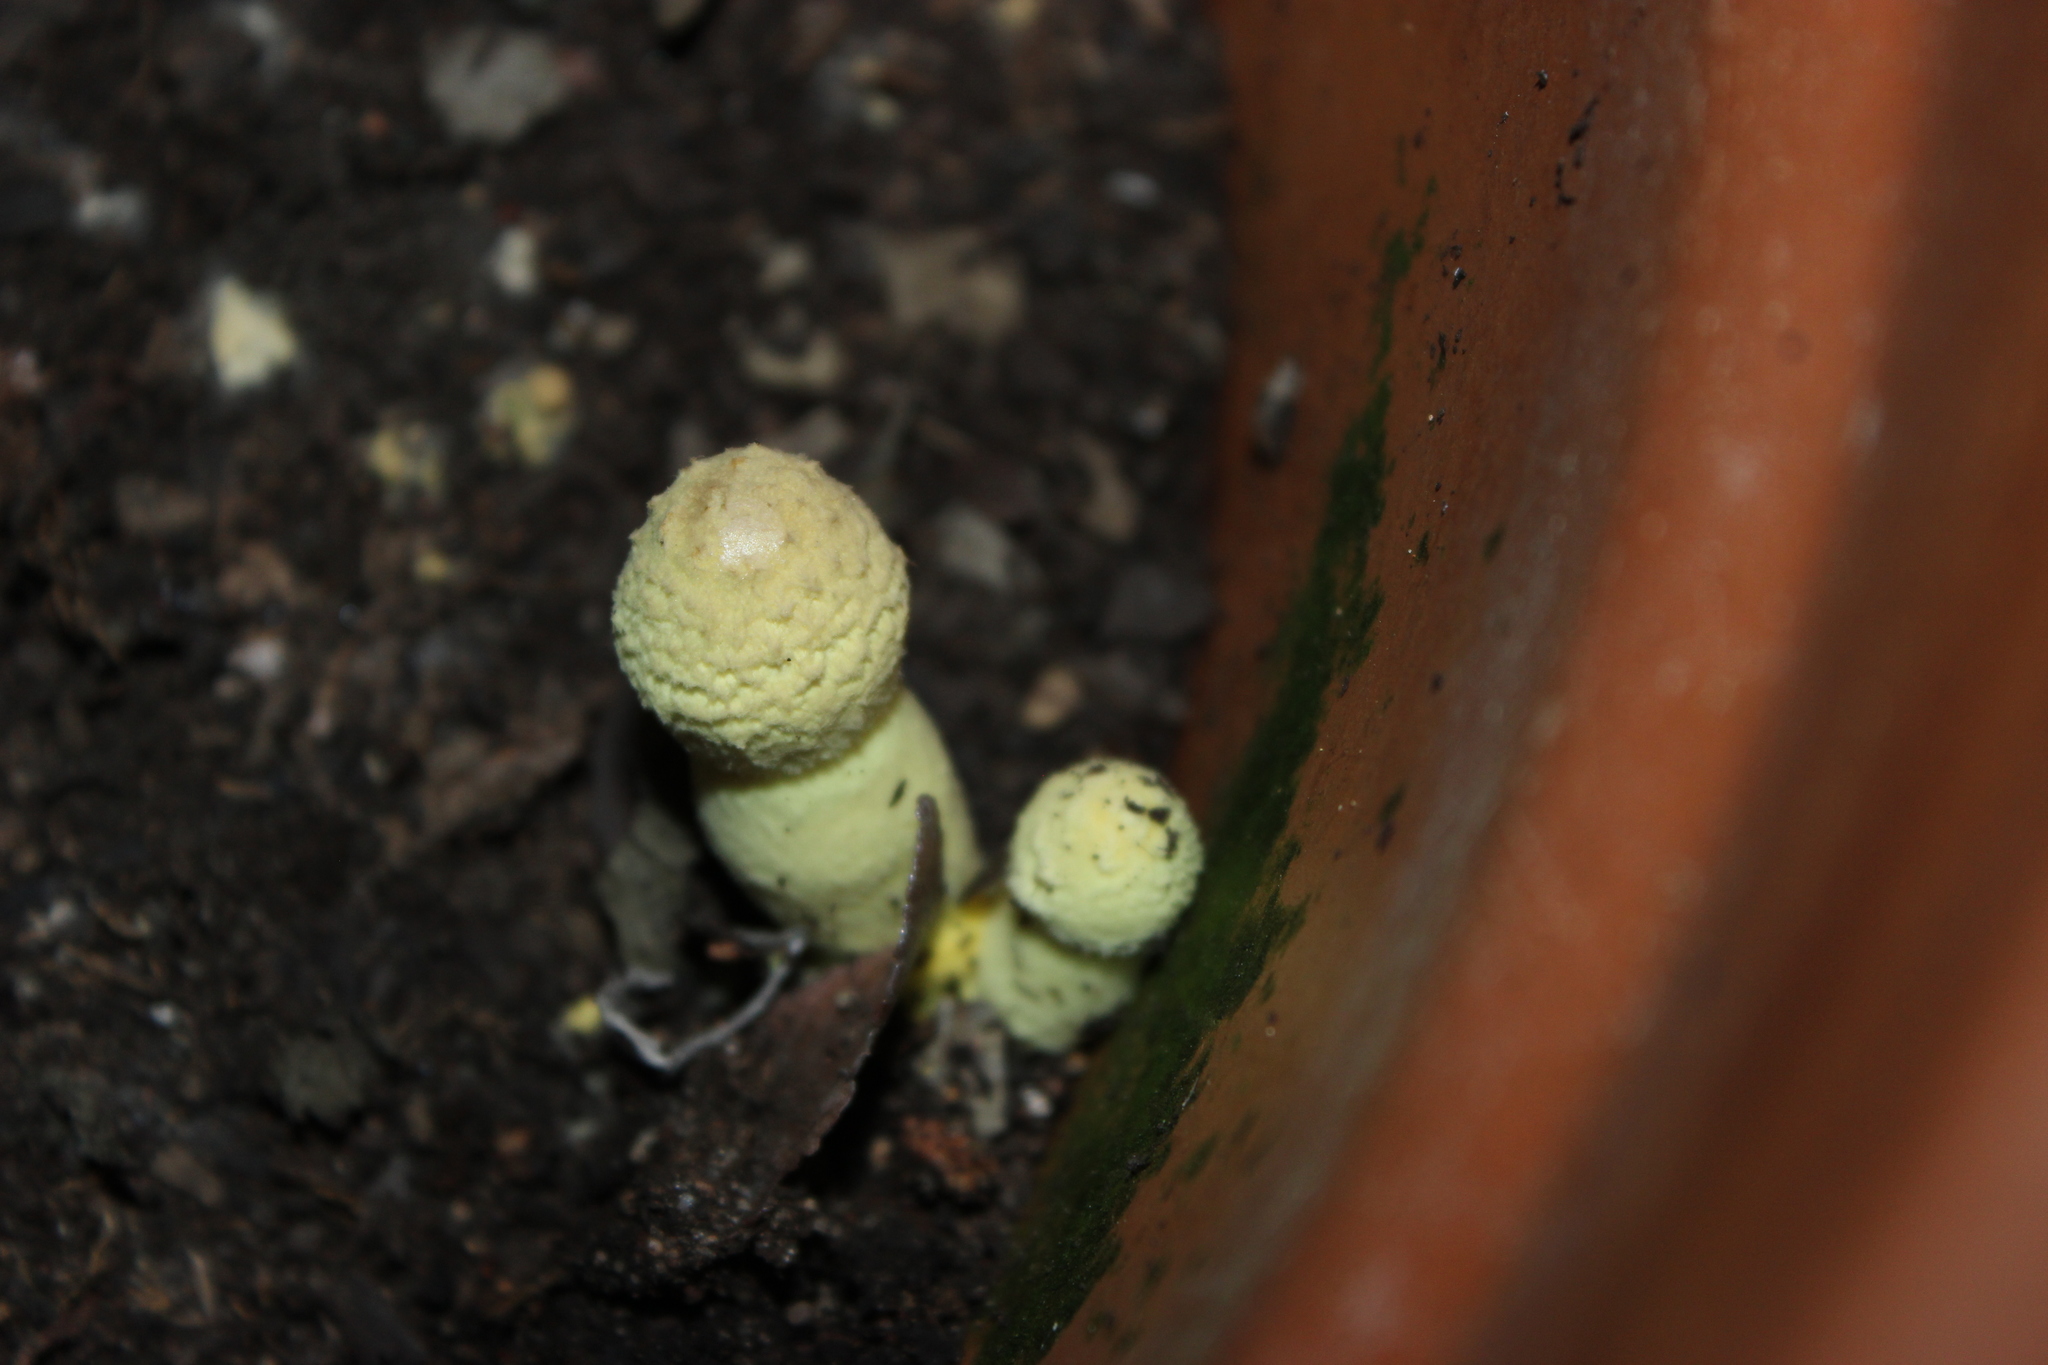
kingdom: Fungi
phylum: Basidiomycota
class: Agaricomycetes
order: Agaricales
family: Agaricaceae
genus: Leucocoprinus
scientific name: Leucocoprinus birnbaumii
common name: Plantpot dapperling
